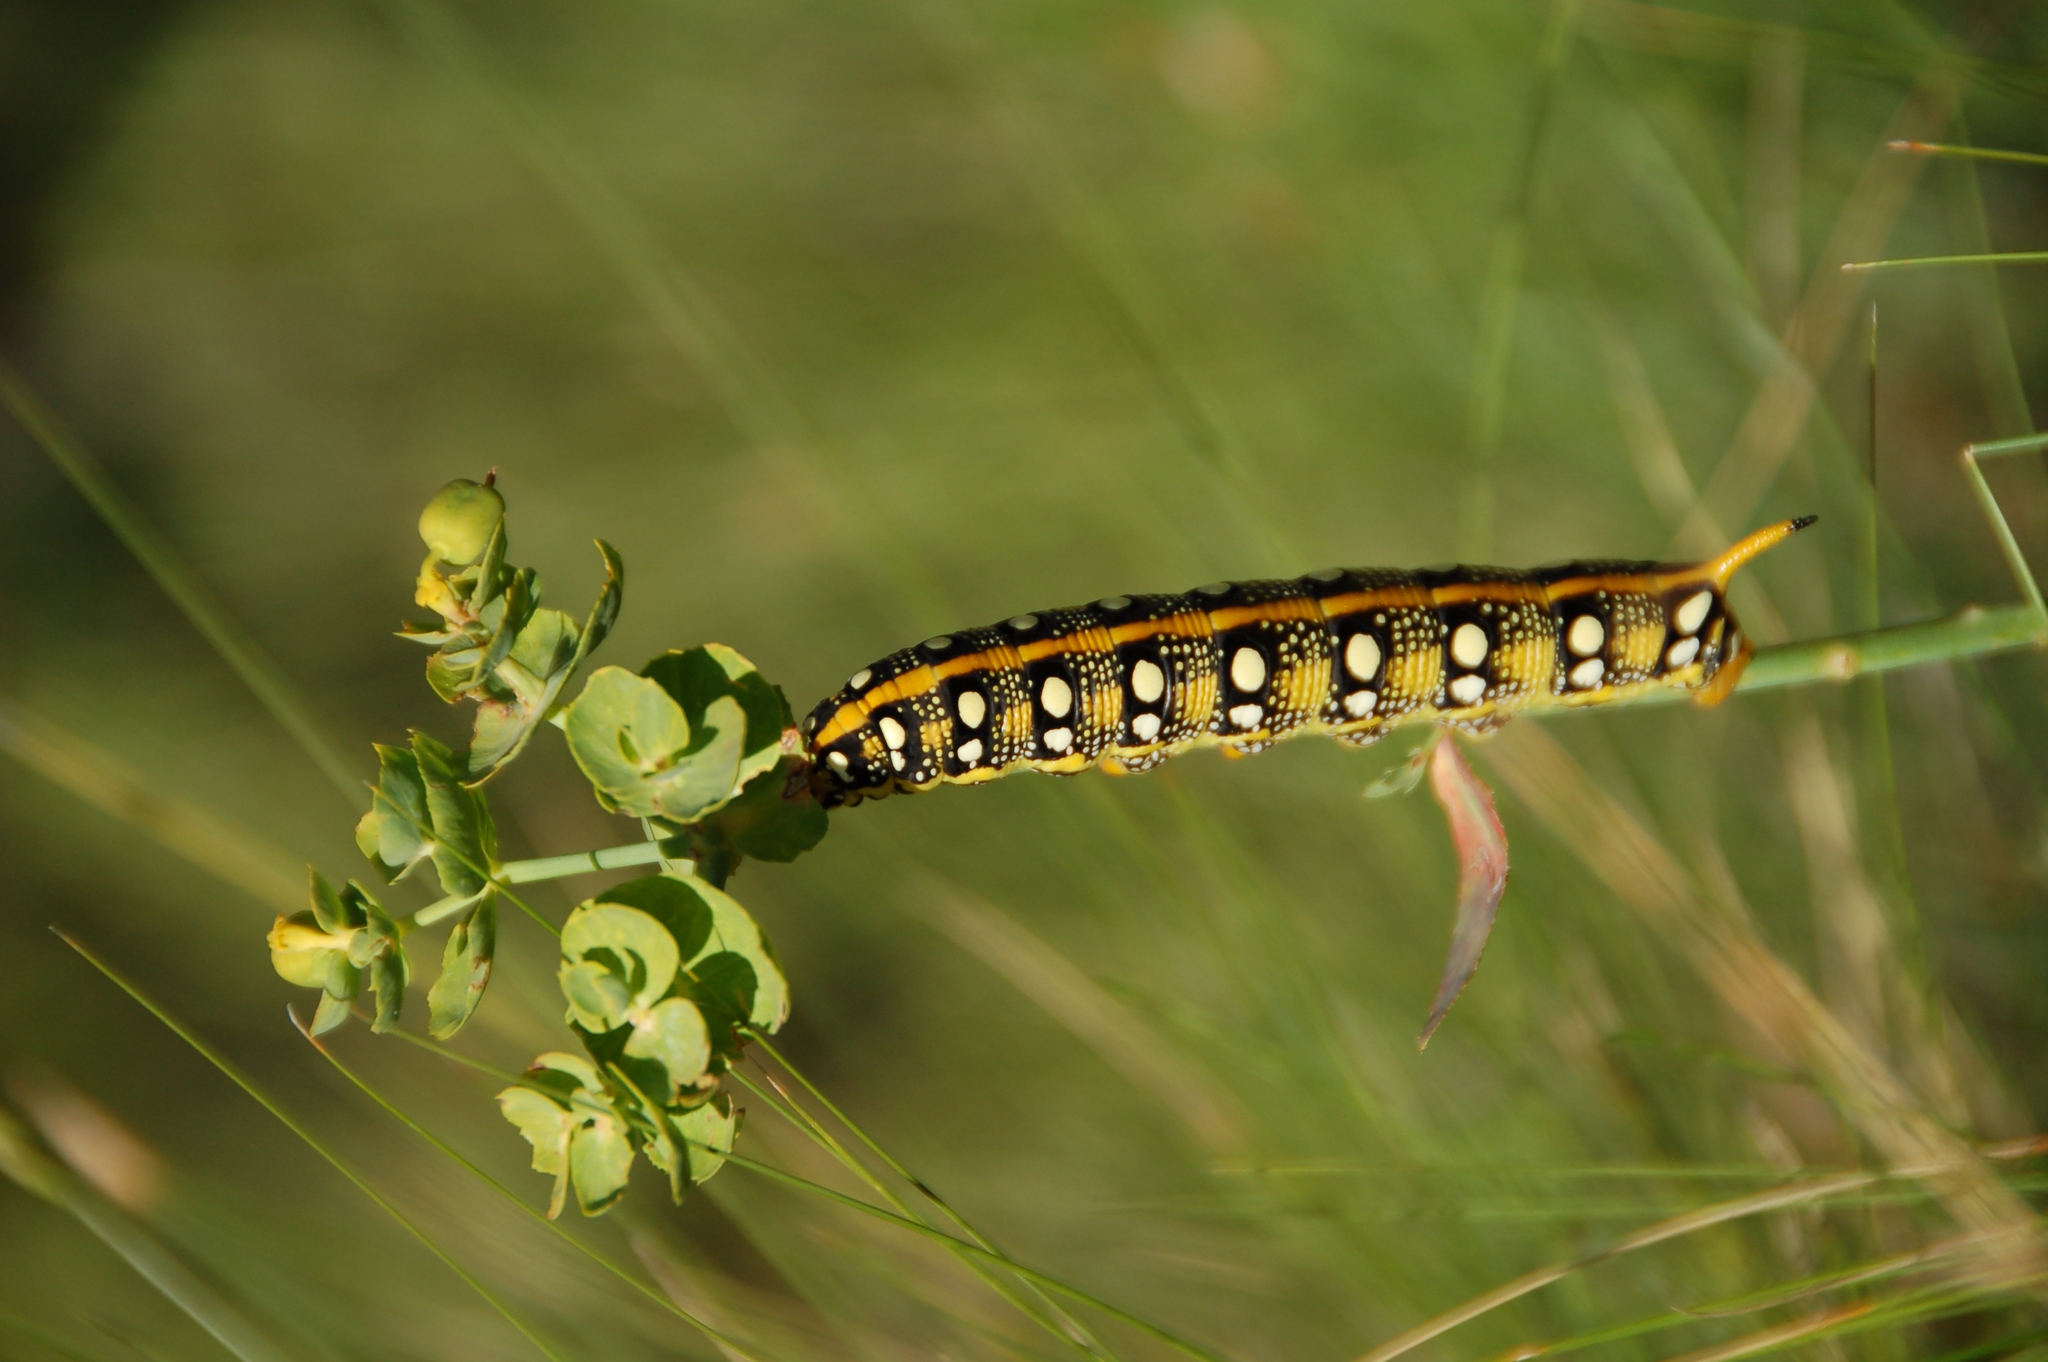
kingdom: Plantae
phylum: Tracheophyta
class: Magnoliopsida
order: Malpighiales
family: Euphorbiaceae
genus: Esula
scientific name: Esula
